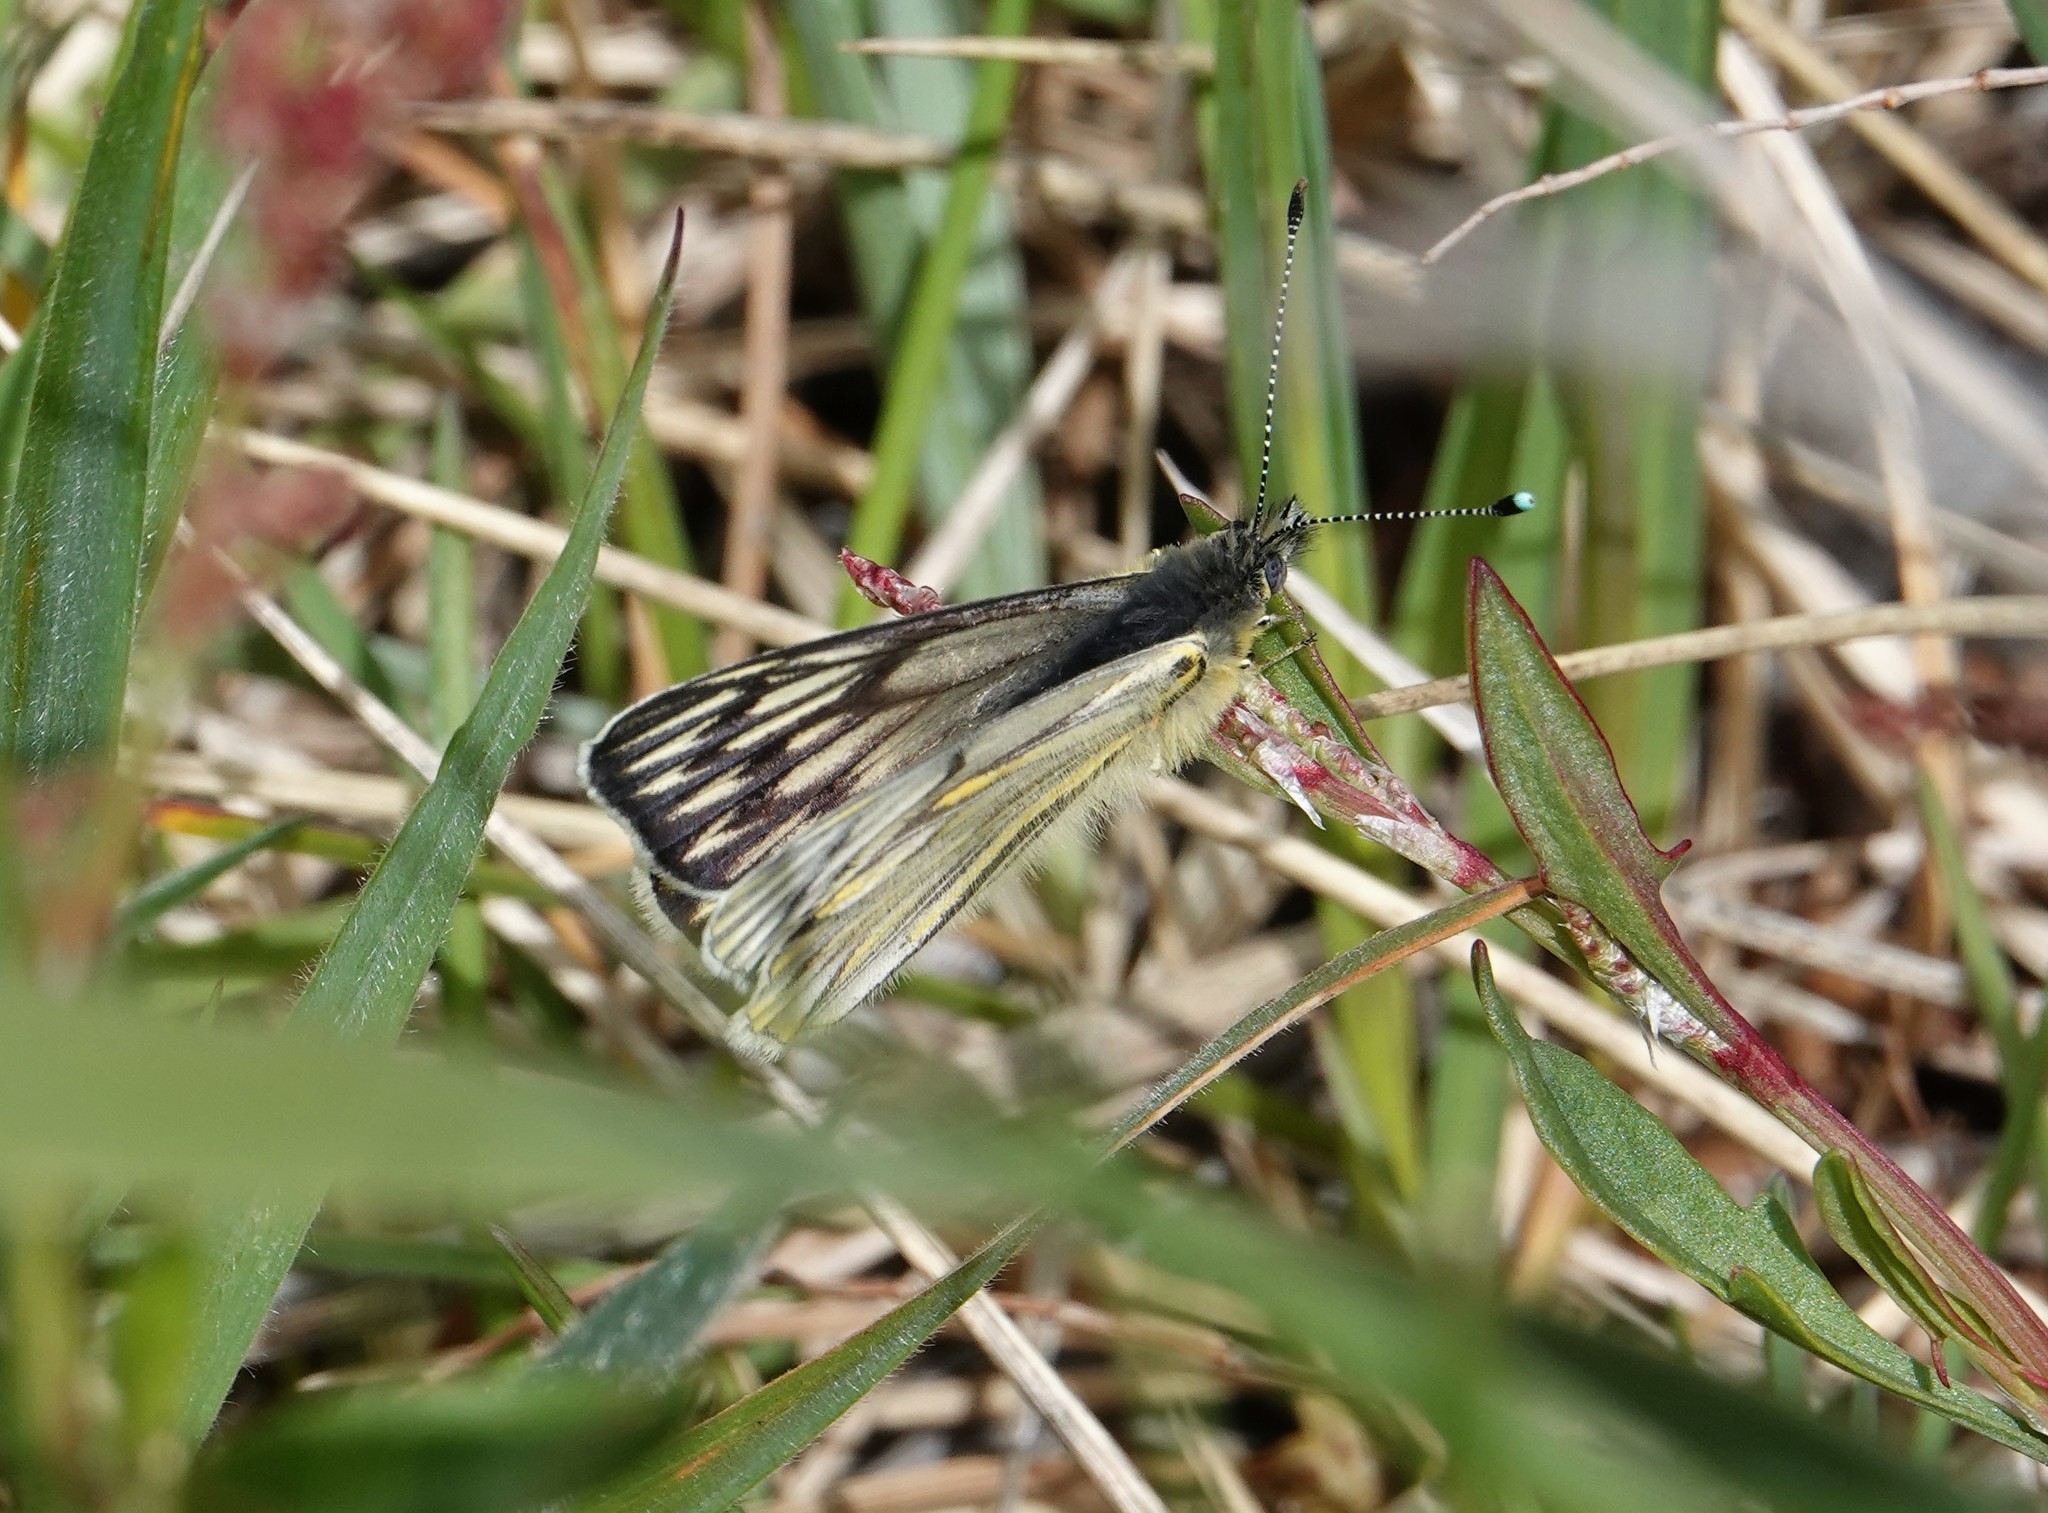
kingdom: Animalia
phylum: Arthropoda
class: Insecta
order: Lepidoptera
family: Pieridae
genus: Tatochila
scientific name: Tatochila theodice
